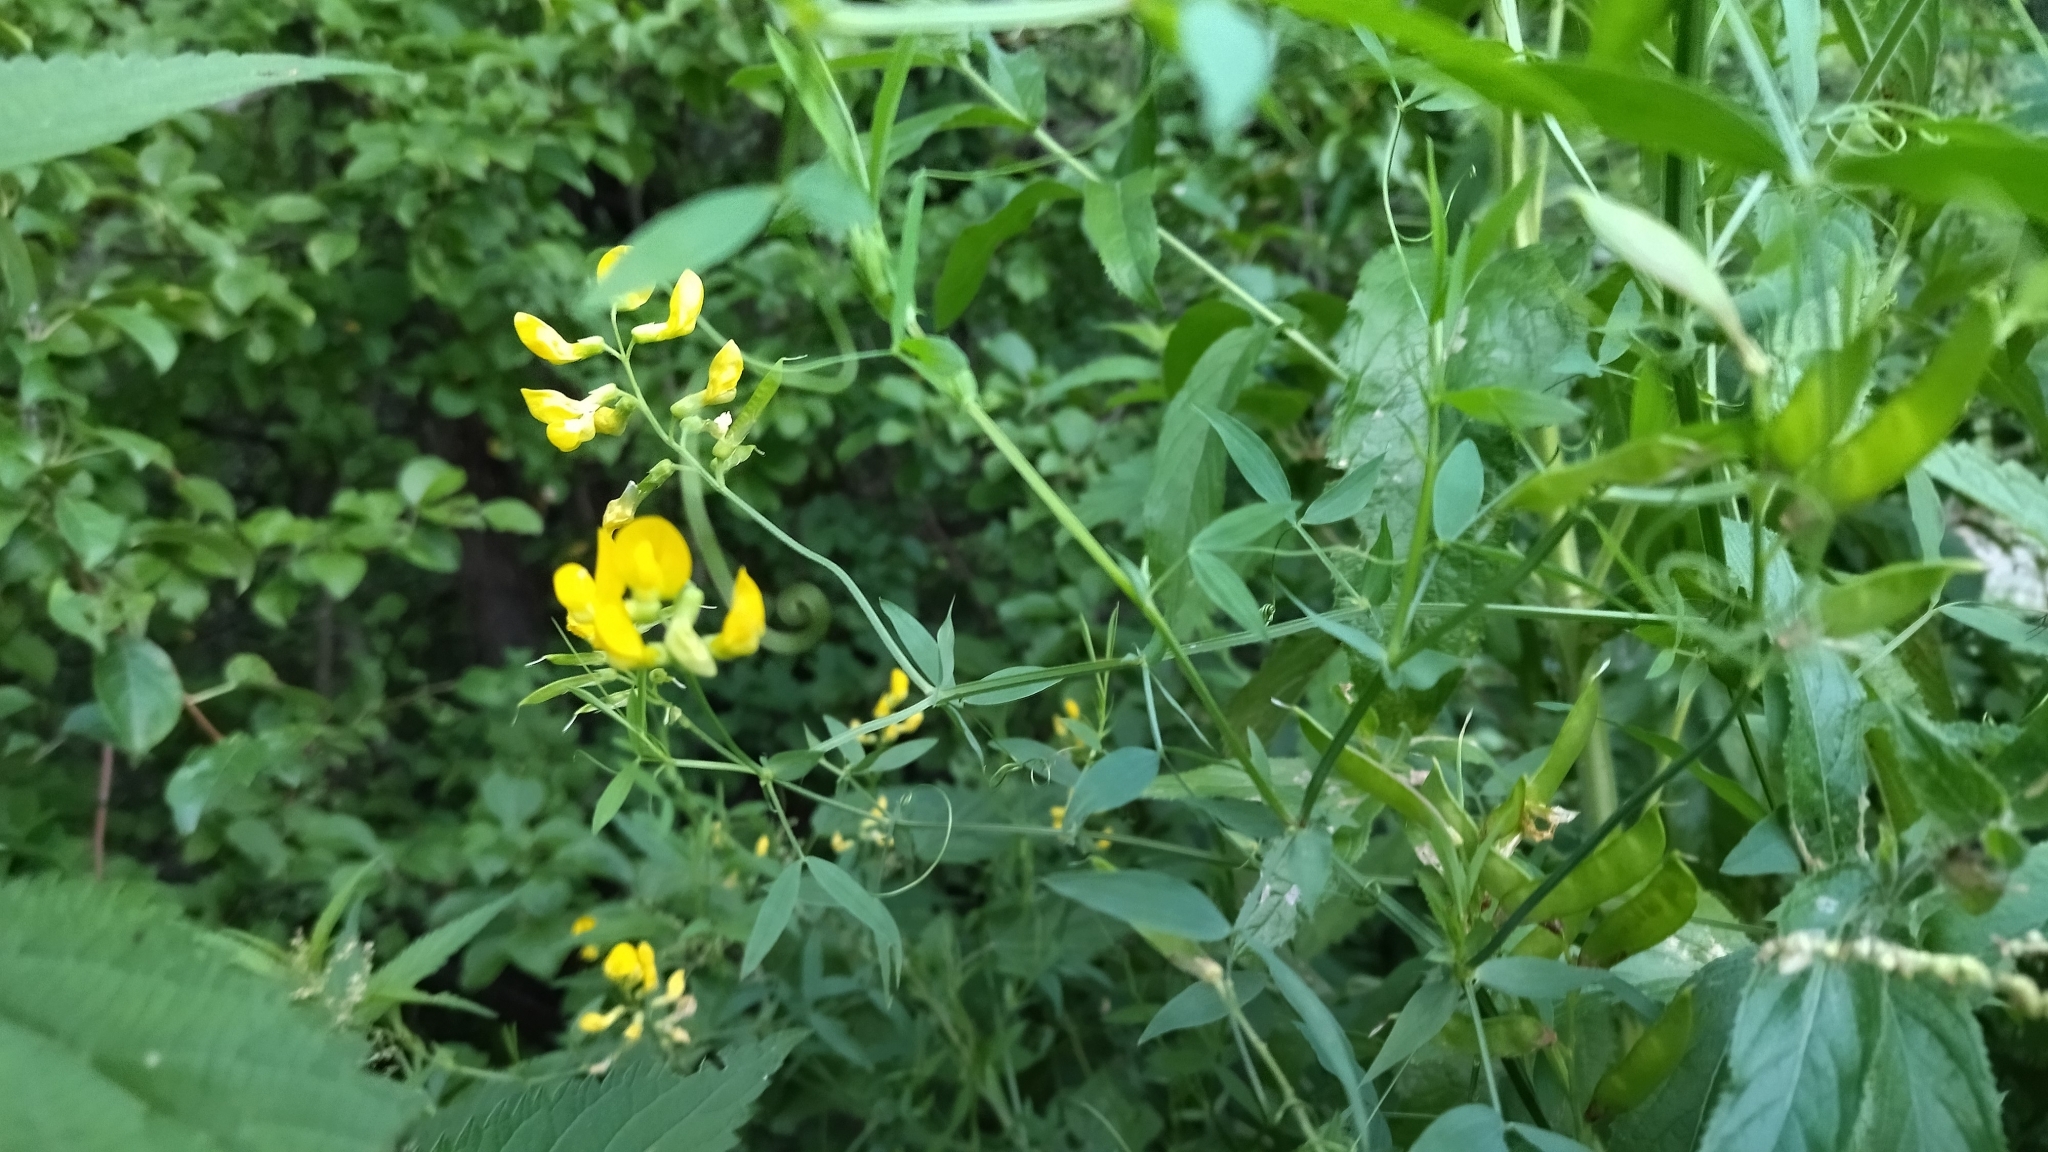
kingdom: Plantae
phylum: Tracheophyta
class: Magnoliopsida
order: Fabales
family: Fabaceae
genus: Lathyrus
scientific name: Lathyrus pratensis
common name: Meadow vetchling
